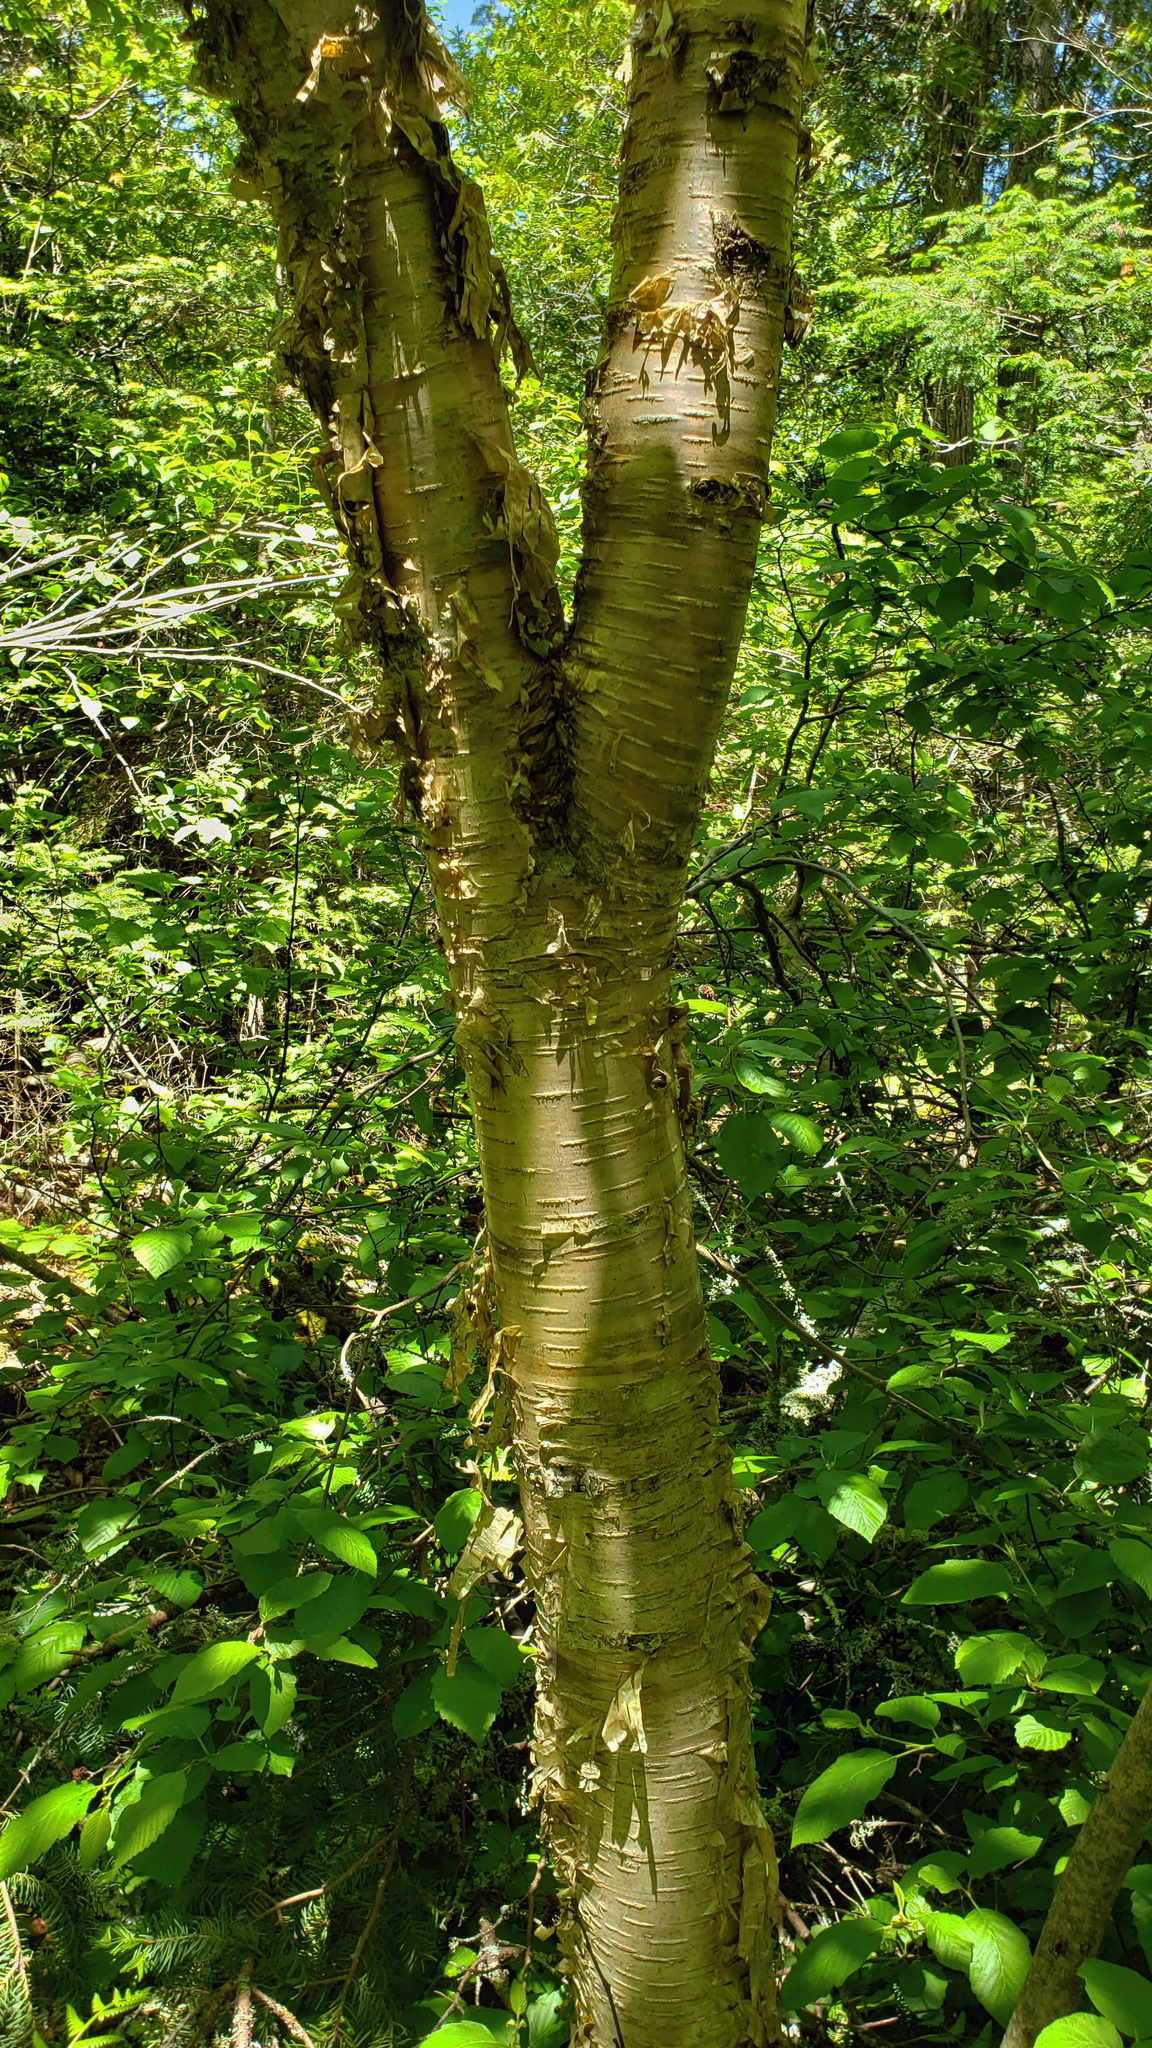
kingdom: Plantae
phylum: Tracheophyta
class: Magnoliopsida
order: Fagales
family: Betulaceae
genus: Betula
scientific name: Betula alleghaniensis
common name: Yellow birch
